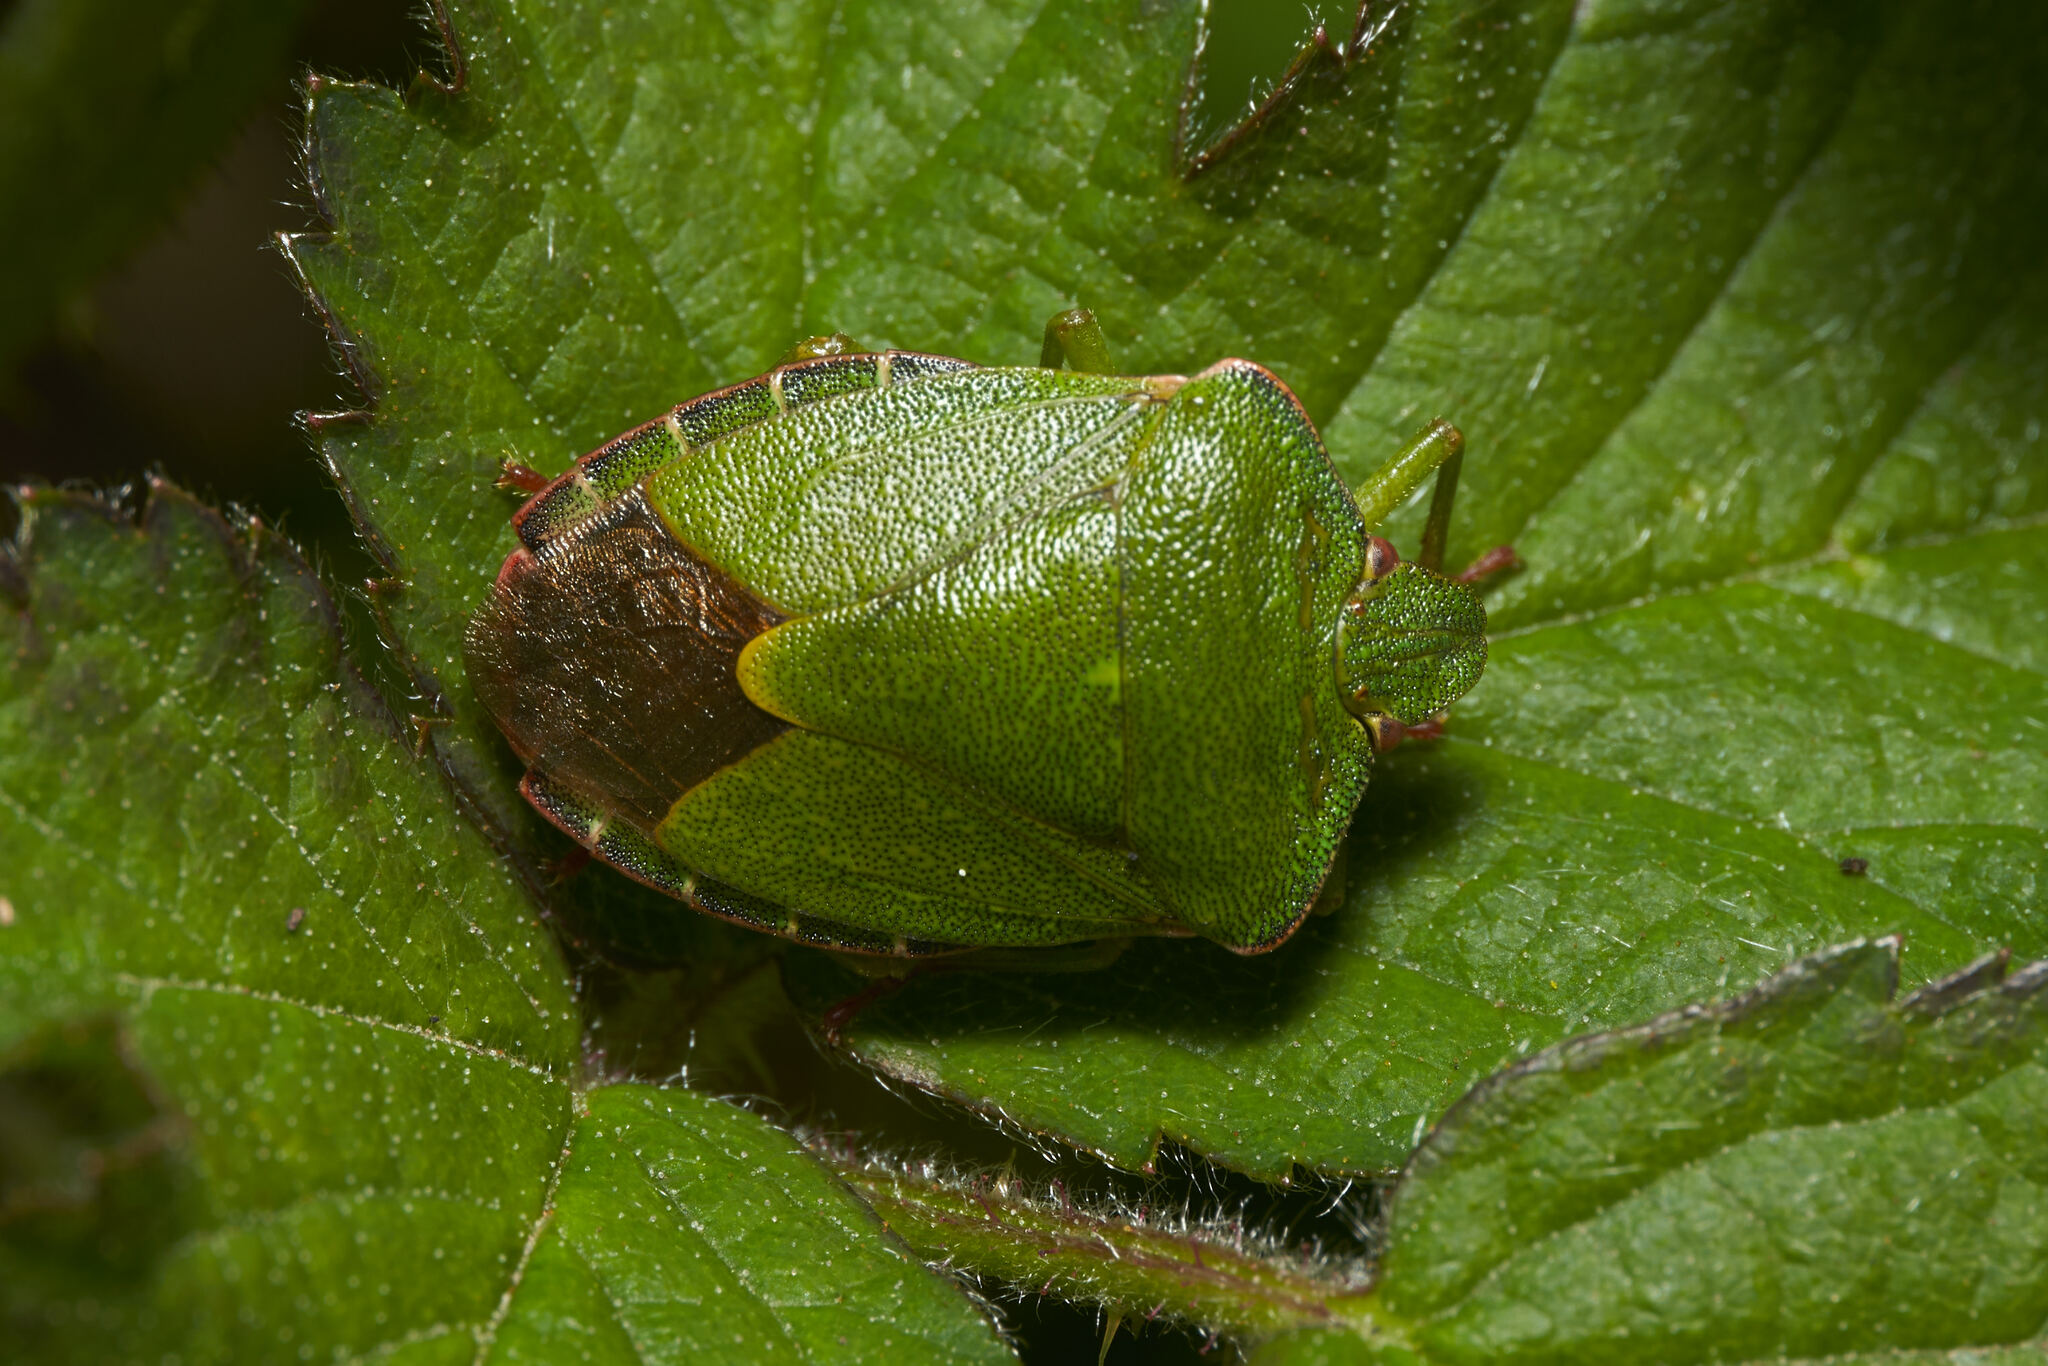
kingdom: Animalia
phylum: Arthropoda
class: Insecta
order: Hemiptera
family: Pentatomidae
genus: Palomena
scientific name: Palomena prasina
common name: Green shieldbug
